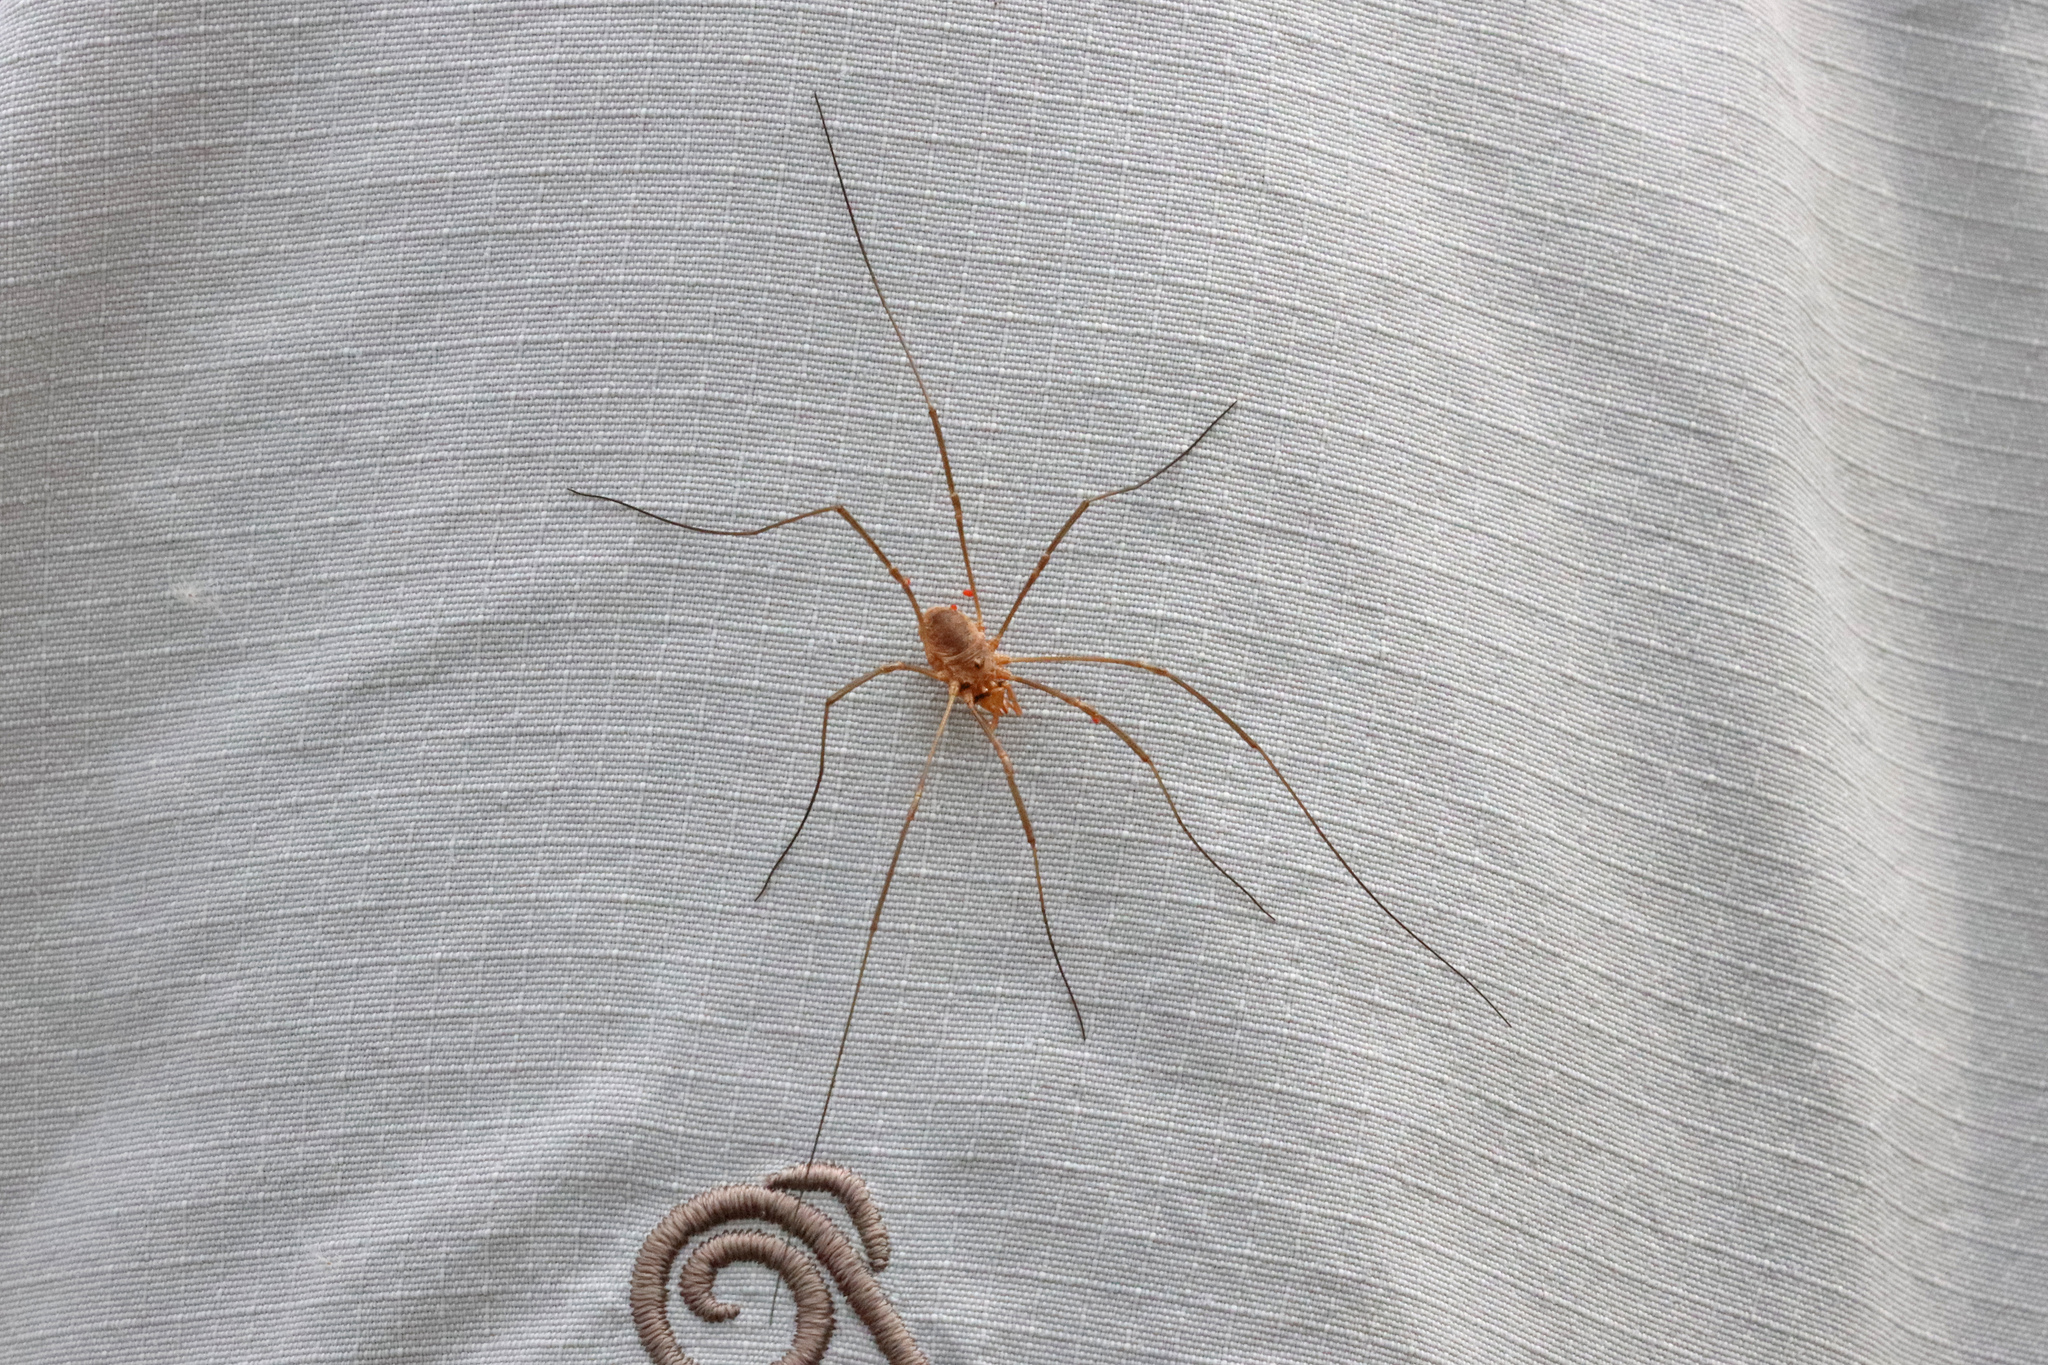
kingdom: Animalia
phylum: Arthropoda
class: Arachnida
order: Opiliones
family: Phalangiidae
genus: Phalangium
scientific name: Phalangium opilio
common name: Daddy longleg
